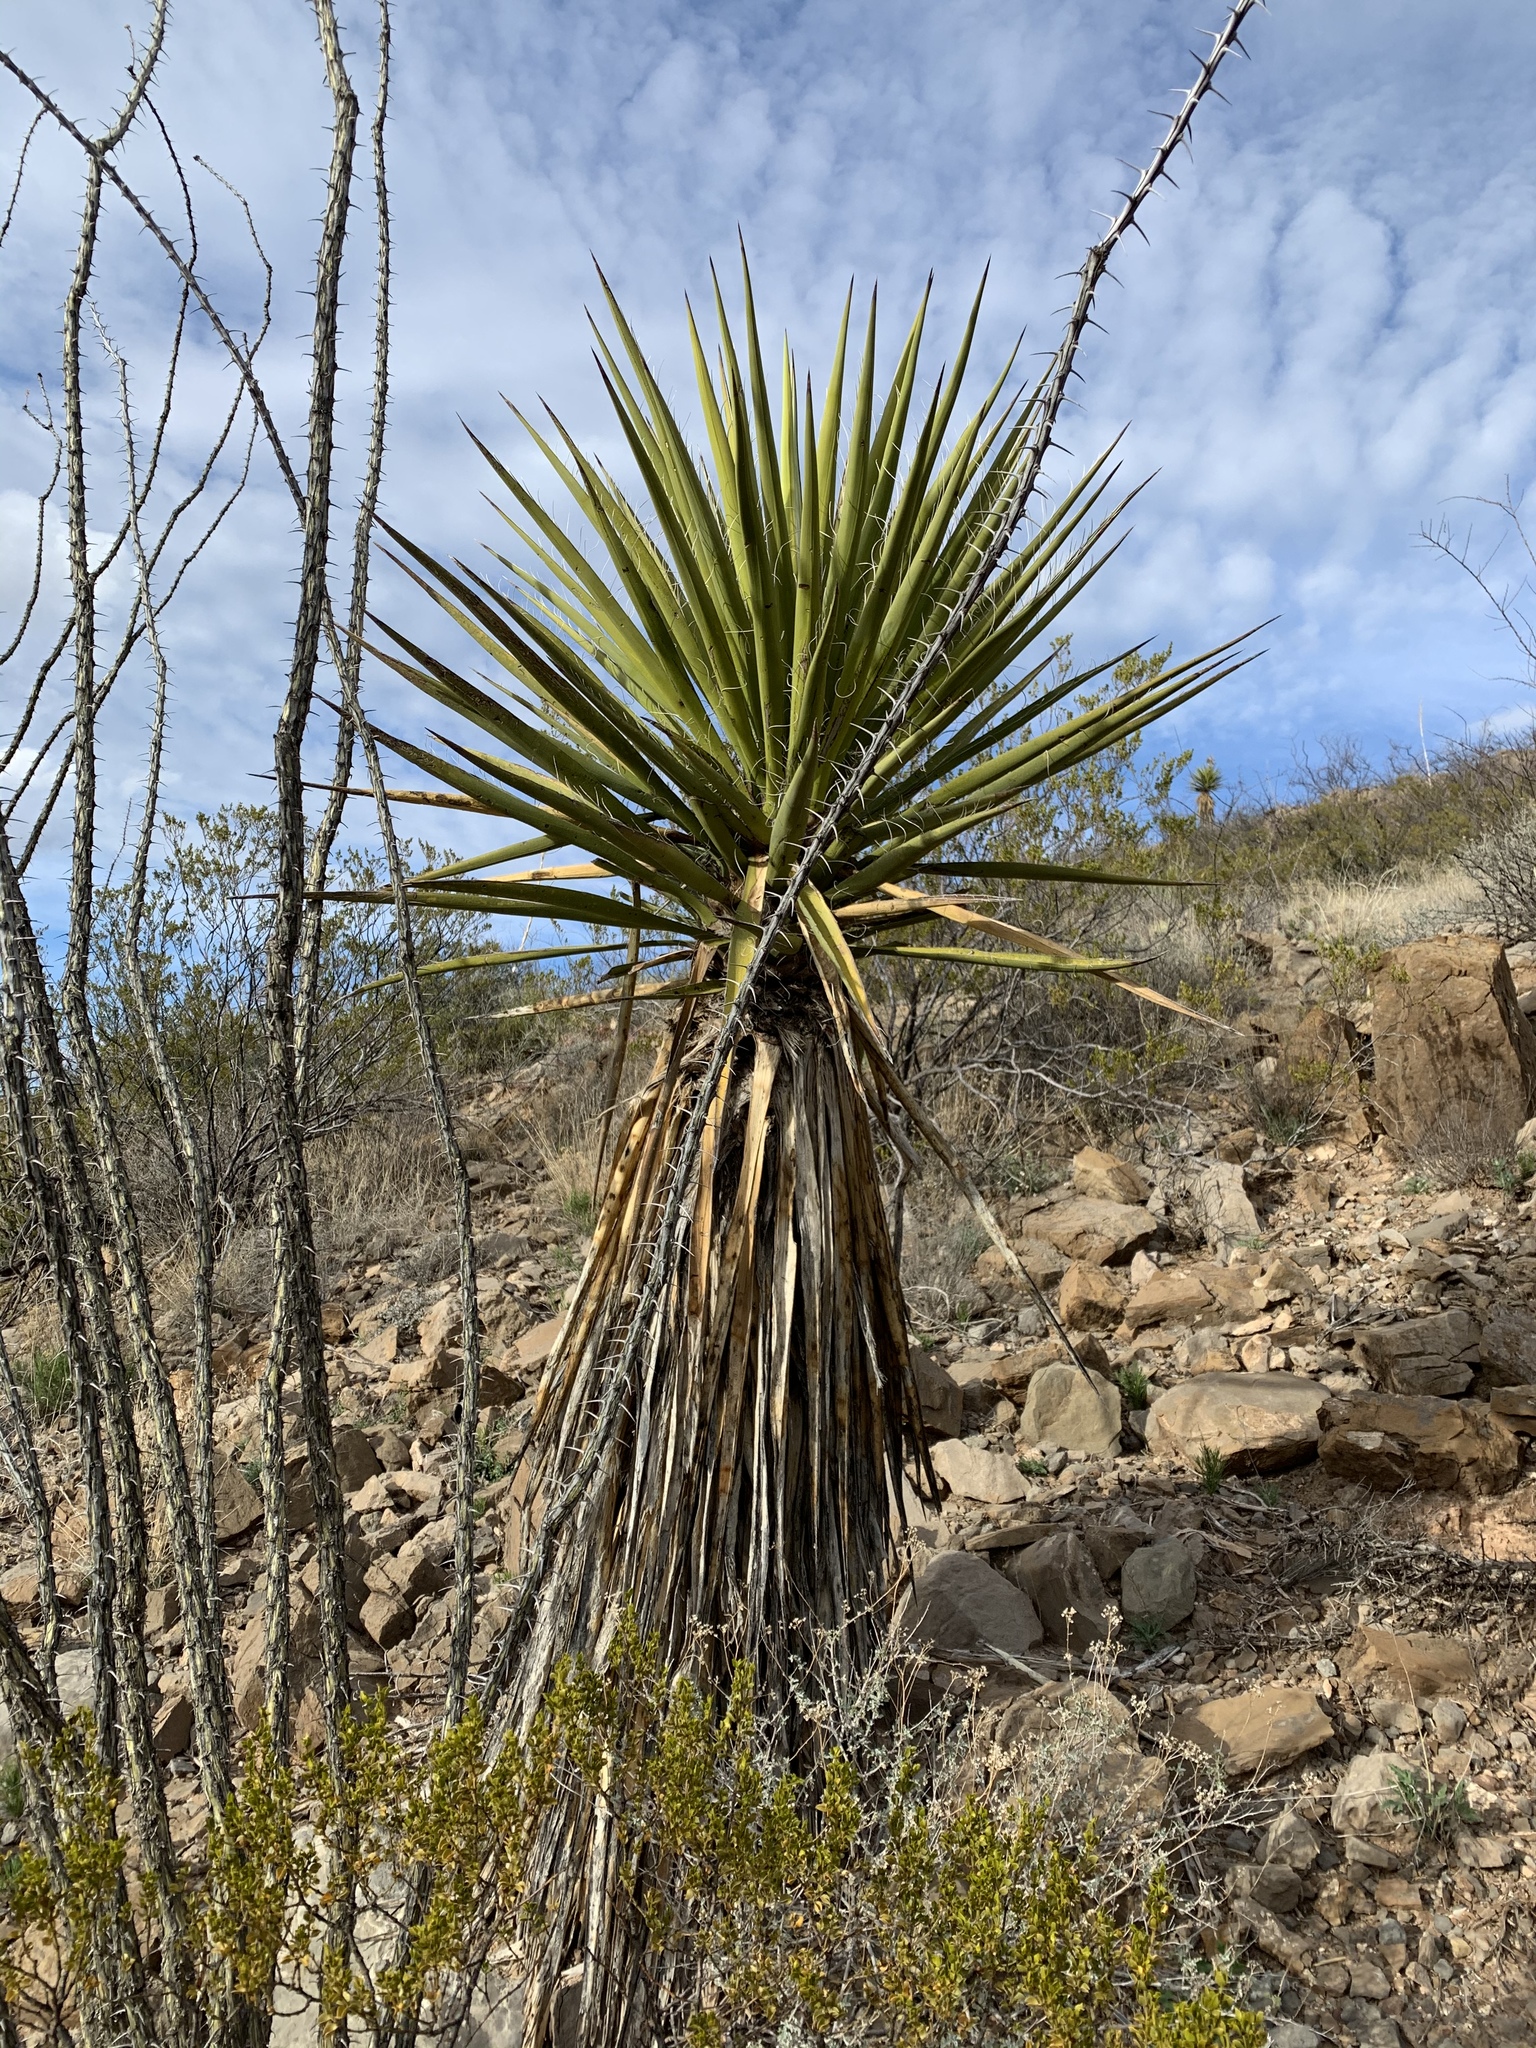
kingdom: Plantae
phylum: Tracheophyta
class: Liliopsida
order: Asparagales
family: Asparagaceae
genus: Yucca
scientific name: Yucca treculiana
